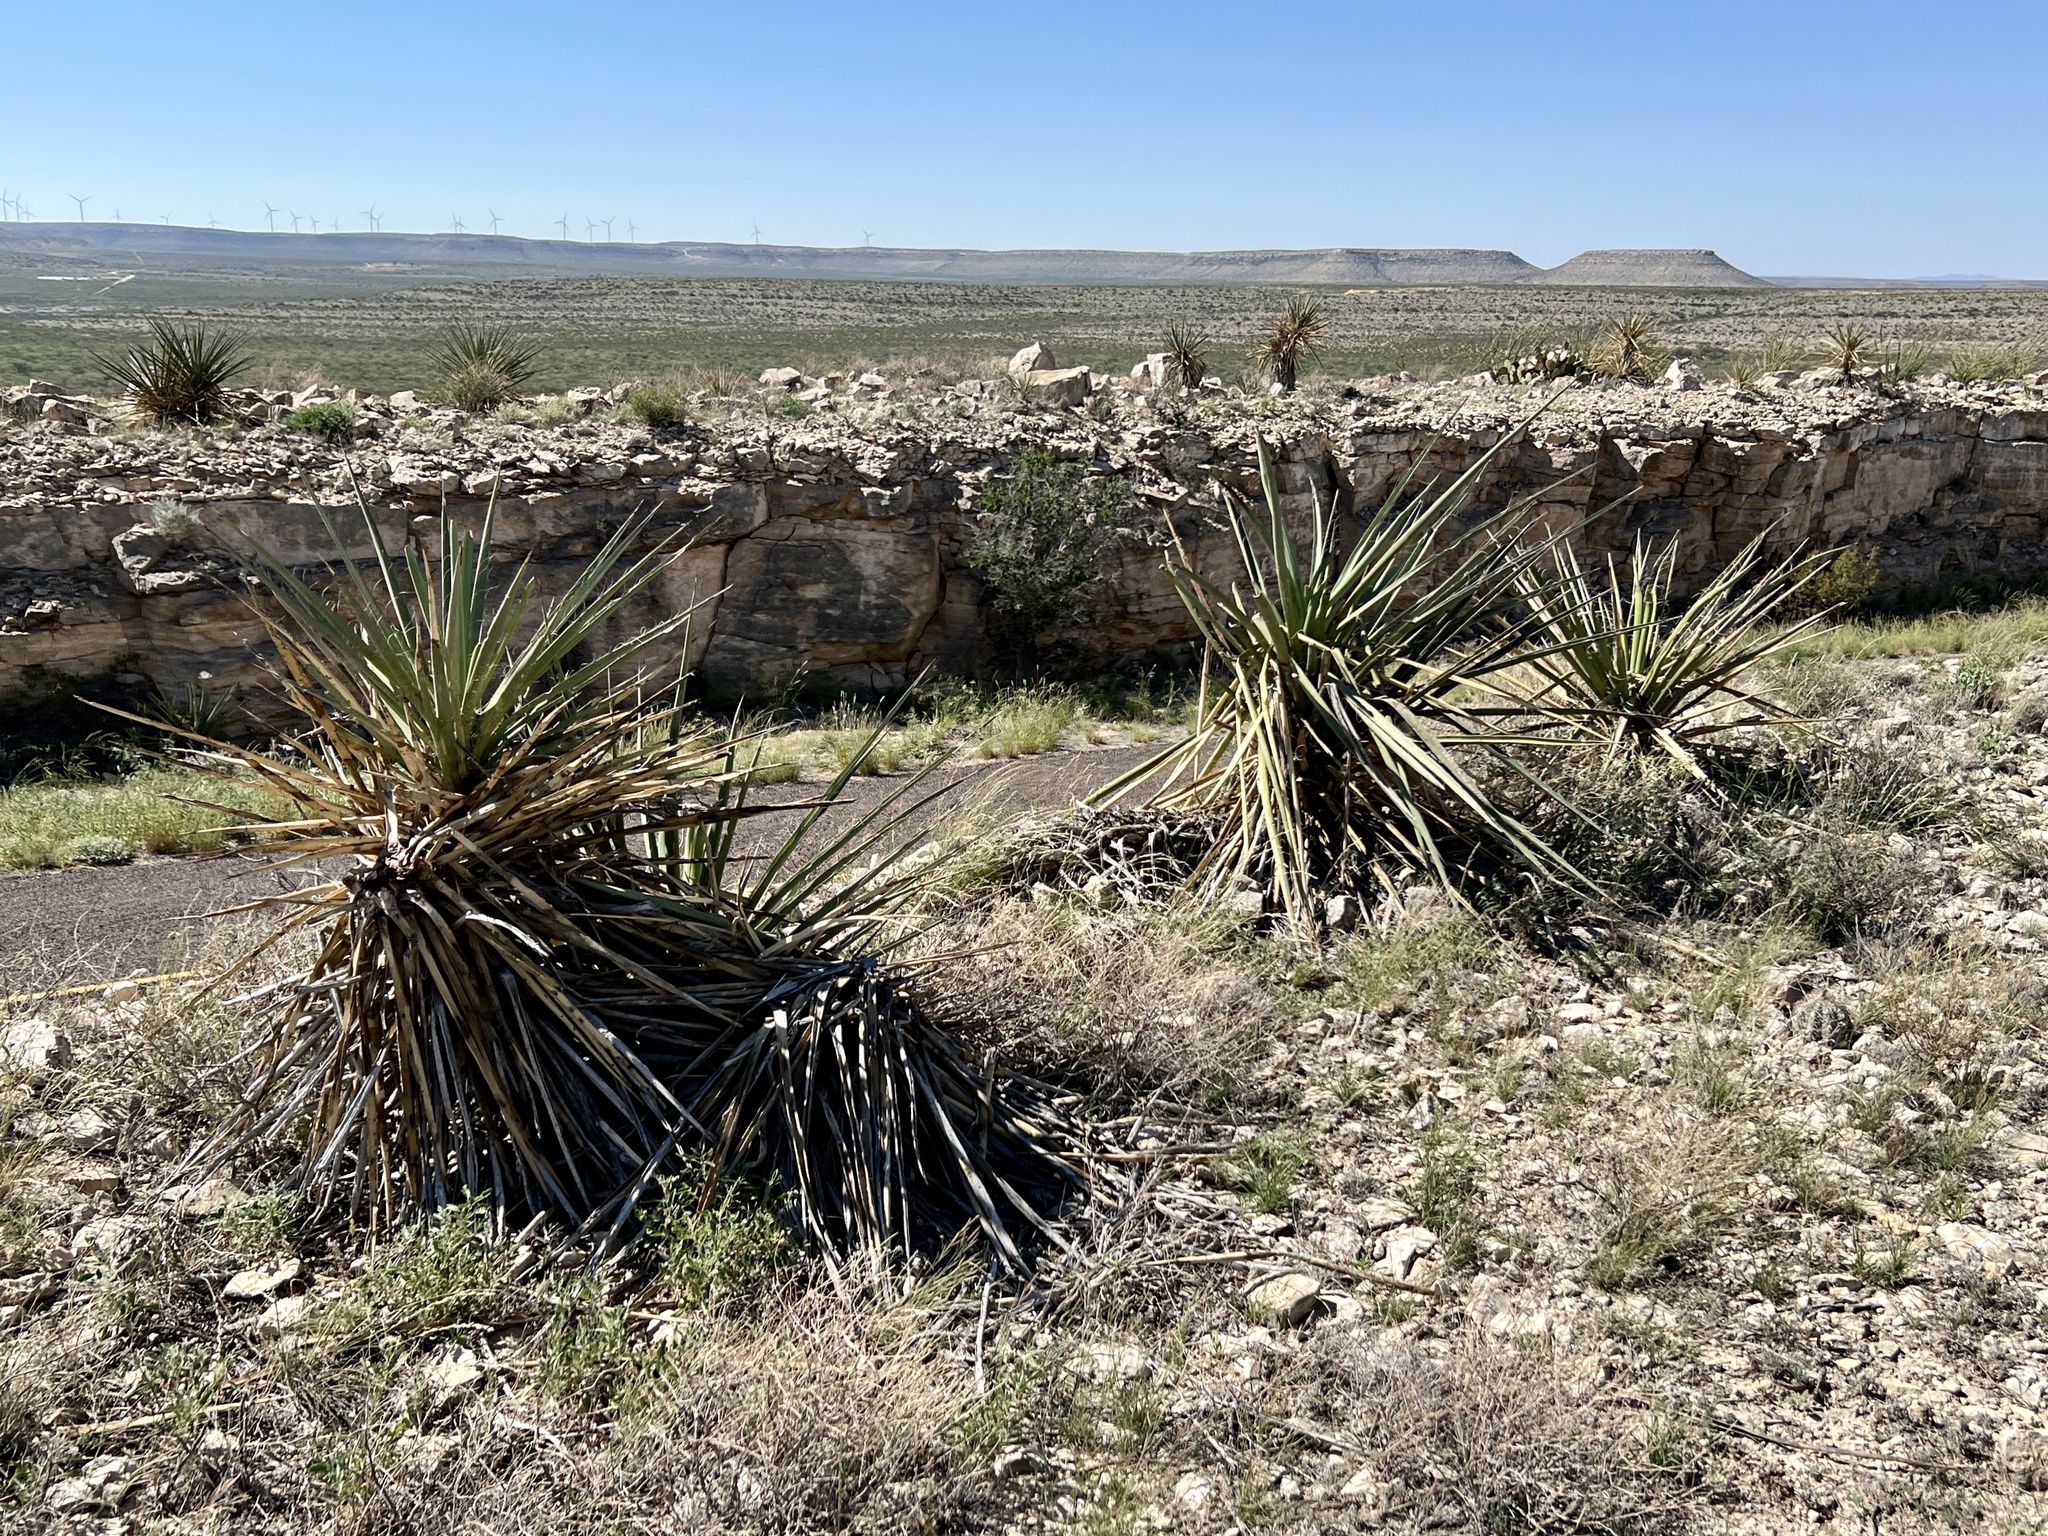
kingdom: Plantae
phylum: Tracheophyta
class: Liliopsida
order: Asparagales
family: Asparagaceae
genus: Yucca
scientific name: Yucca treculiana
